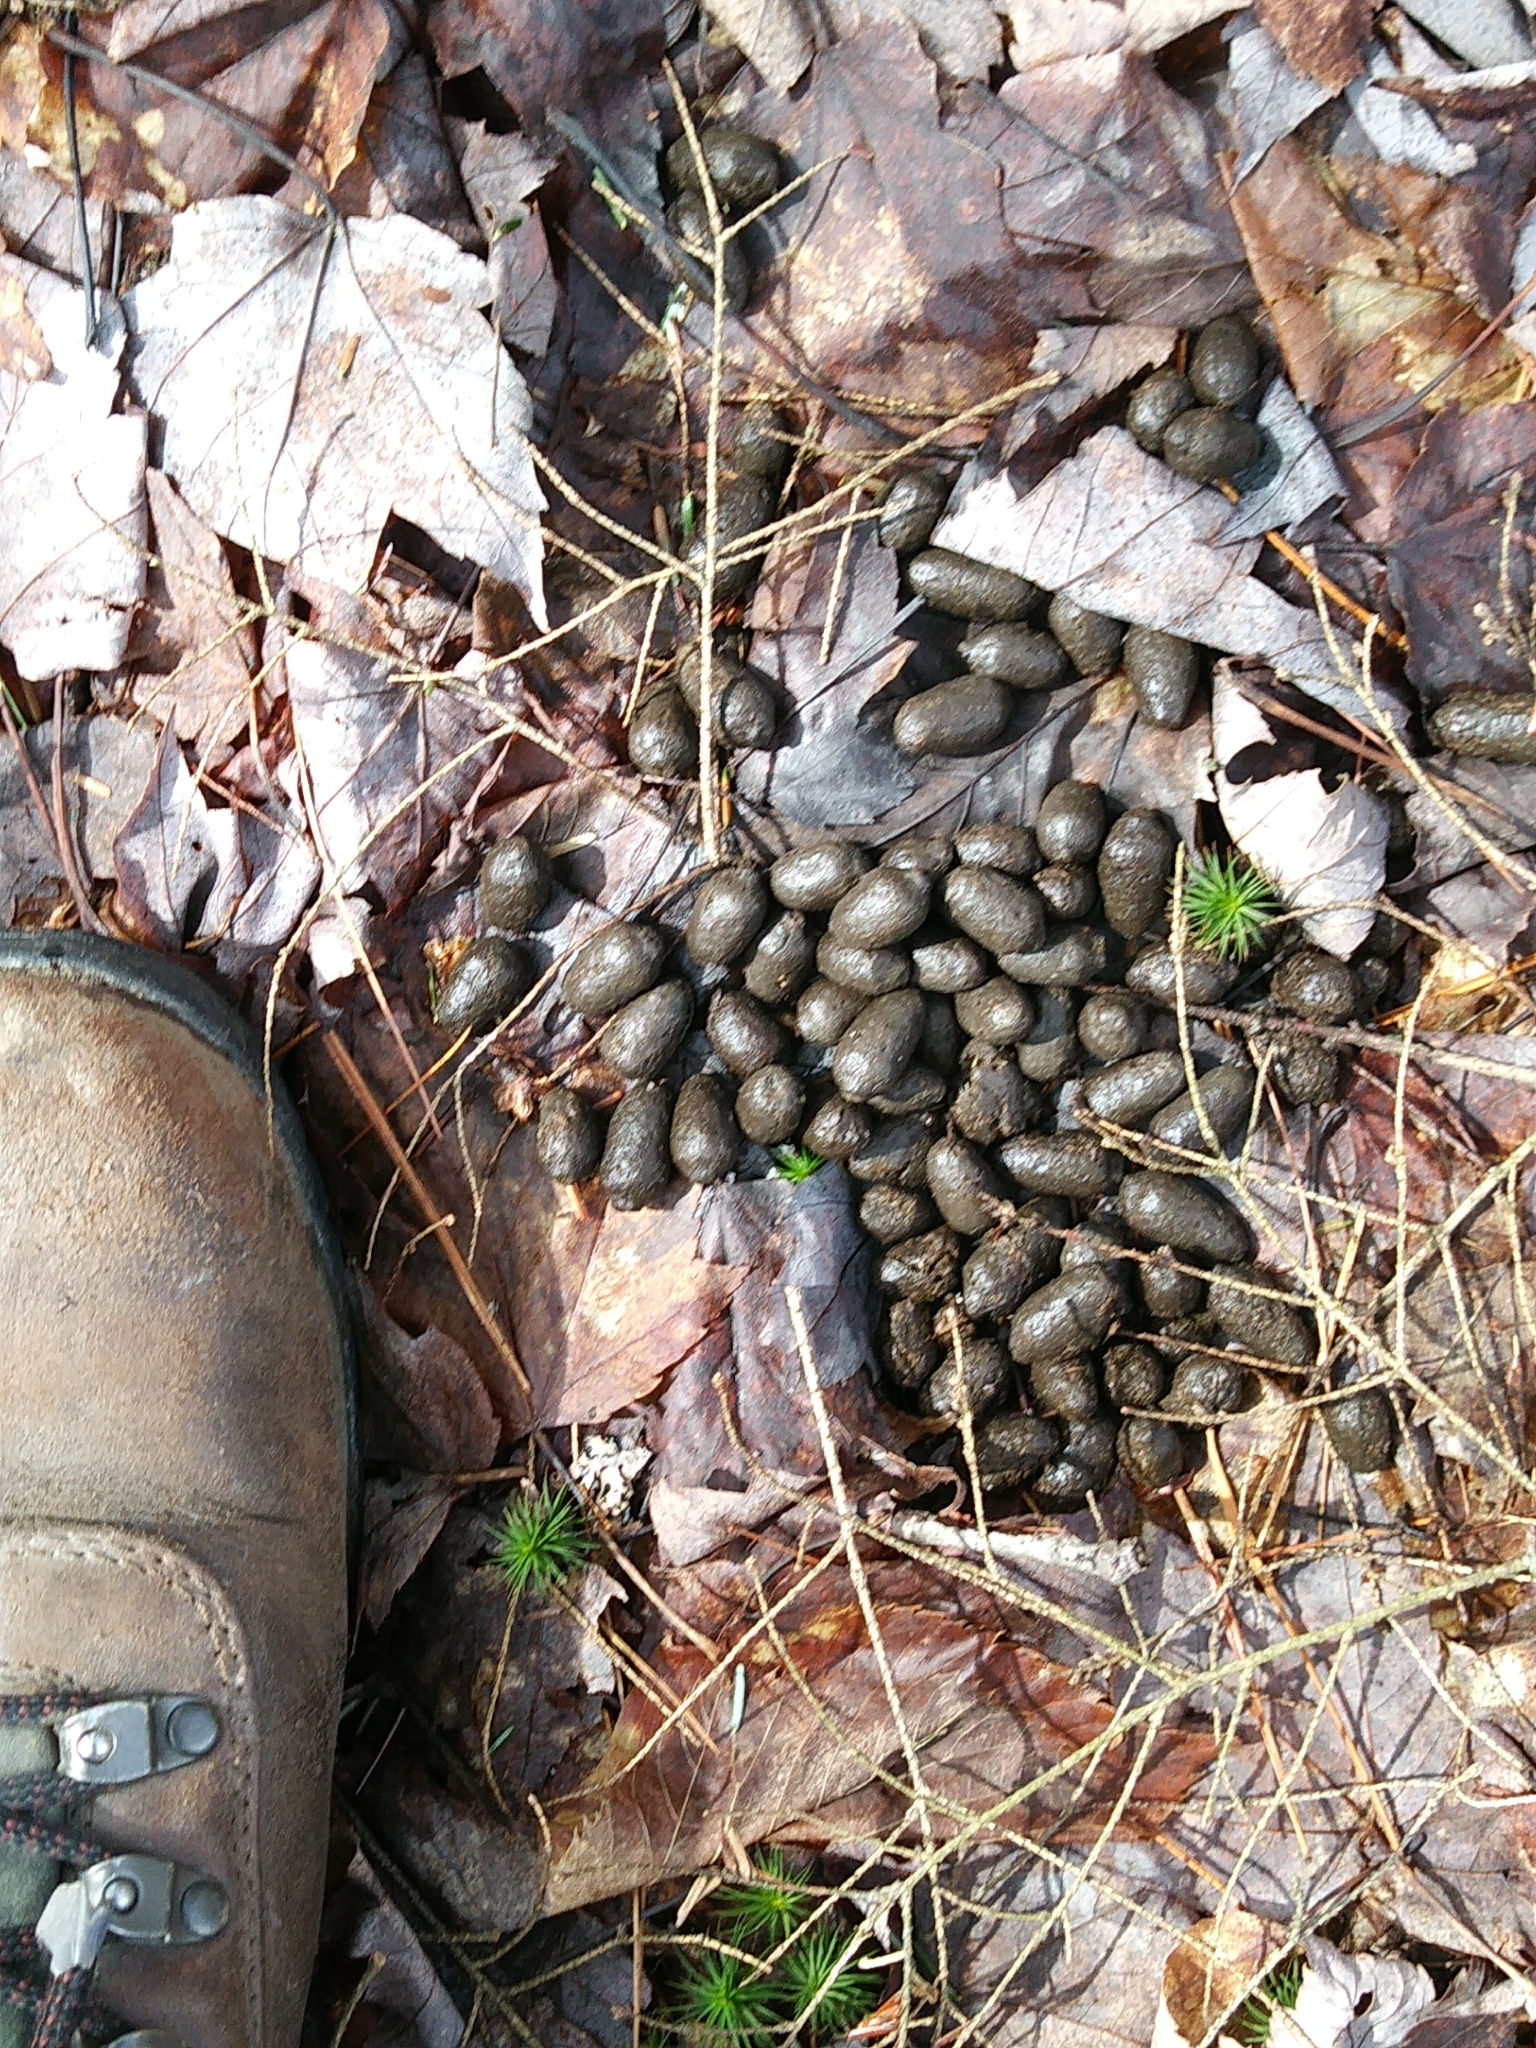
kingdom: Animalia
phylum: Chordata
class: Mammalia
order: Artiodactyla
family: Cervidae
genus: Odocoileus
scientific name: Odocoileus virginianus
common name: White-tailed deer
